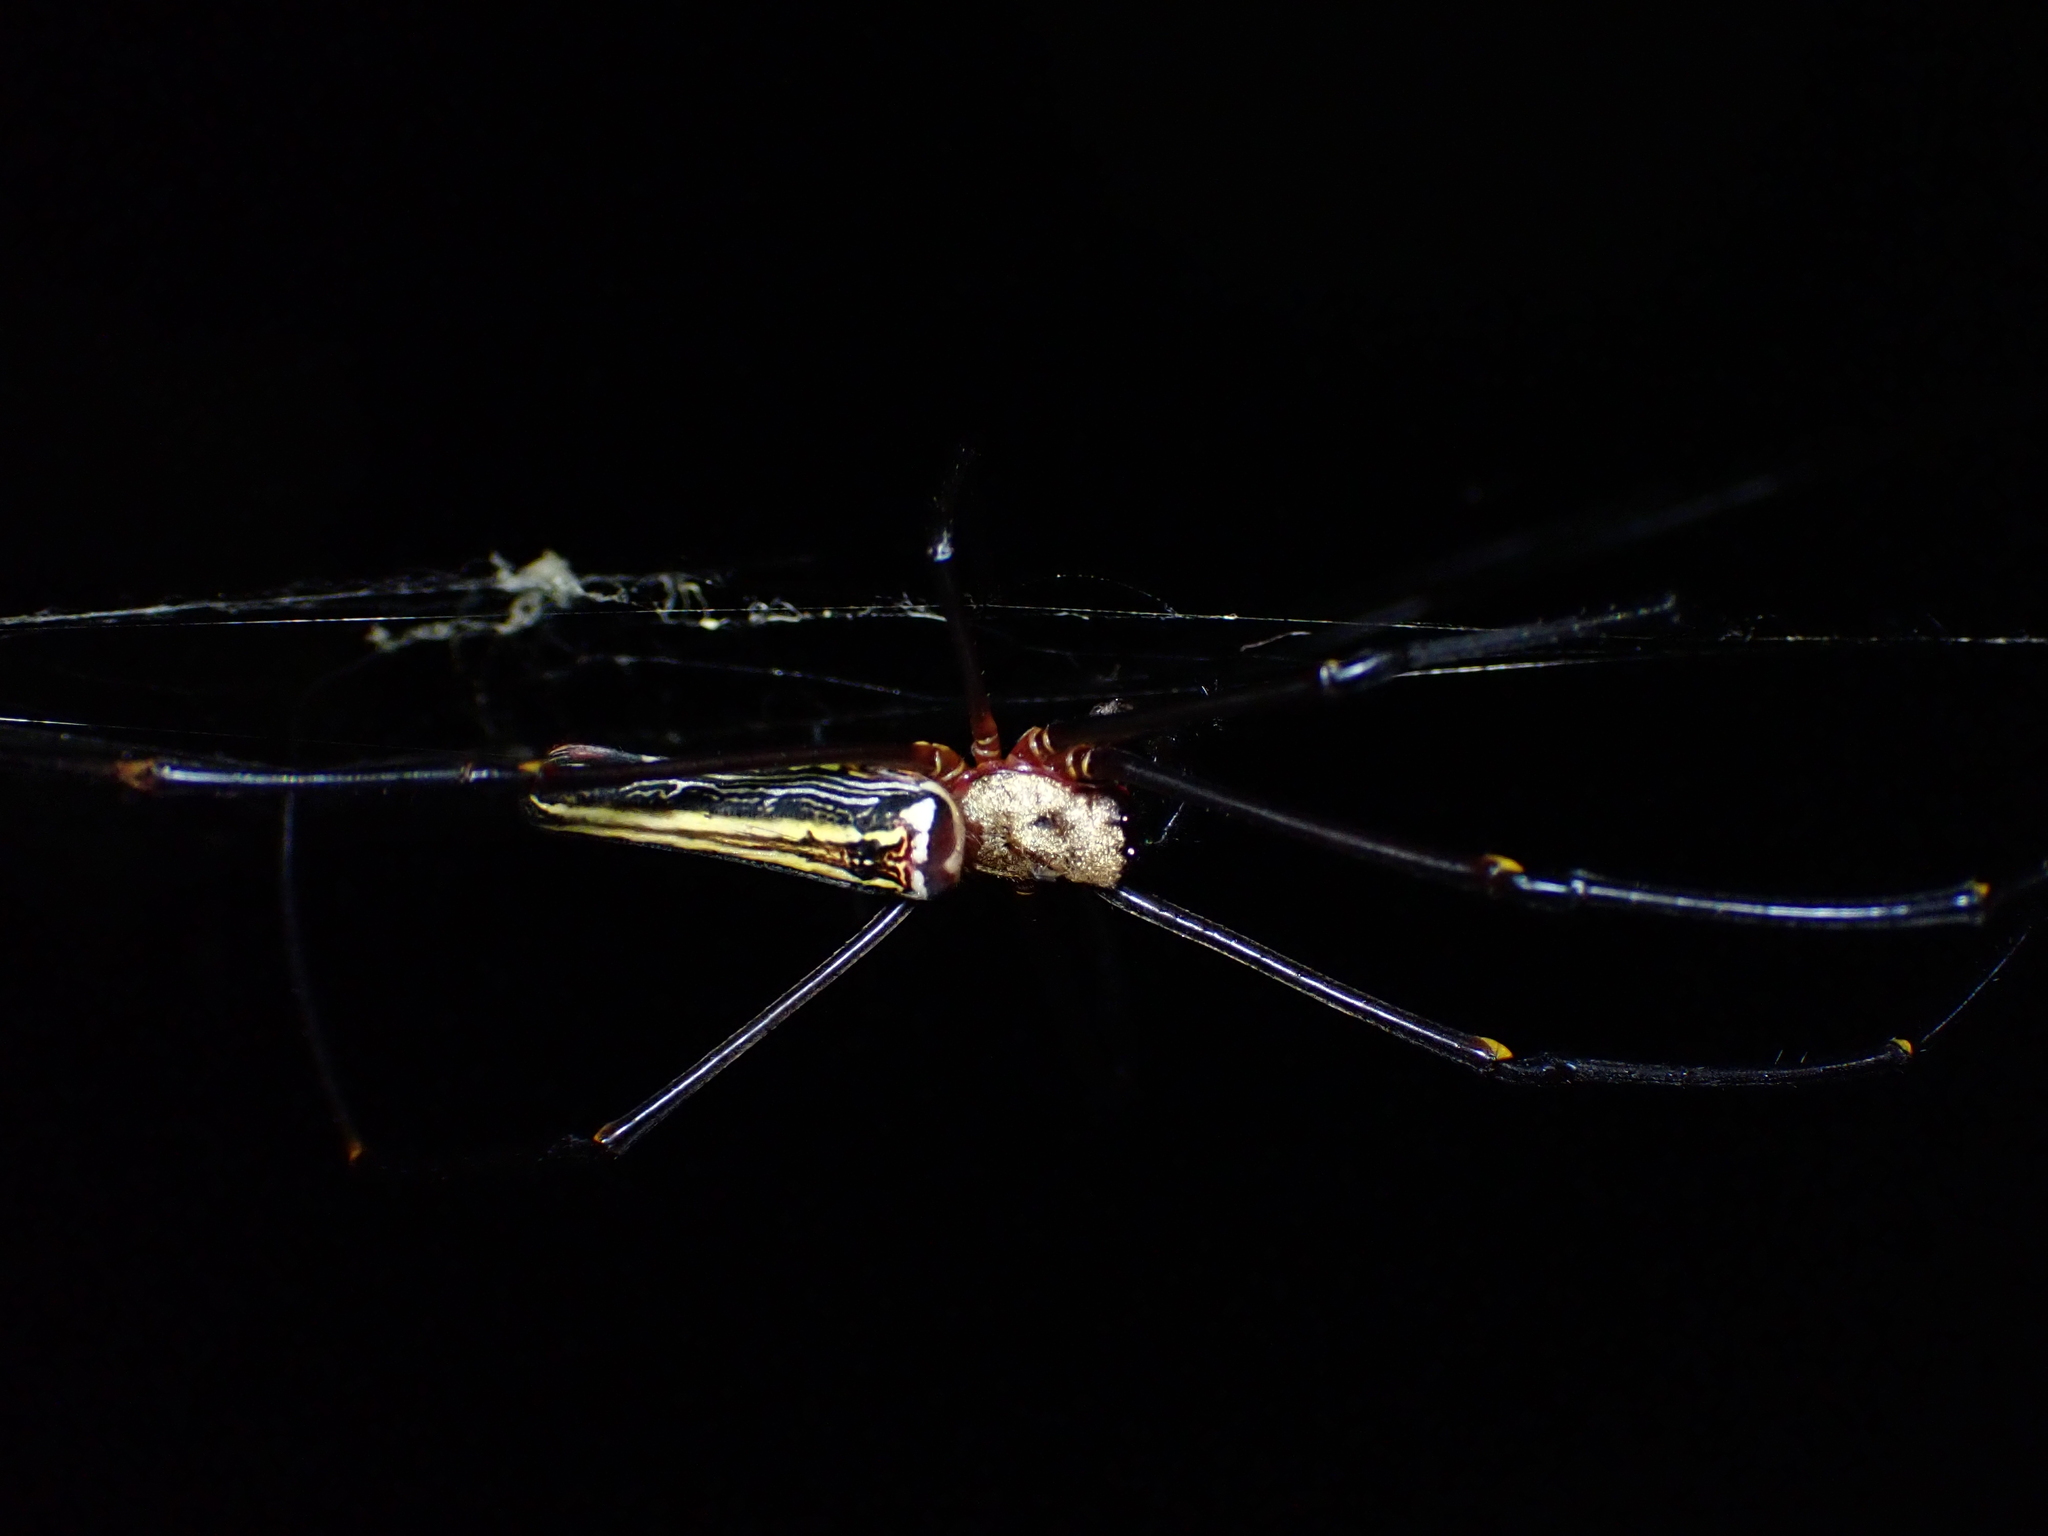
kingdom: Animalia
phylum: Arthropoda
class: Arachnida
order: Araneae
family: Araneidae
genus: Nephila
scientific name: Nephila pilipes
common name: Giant golden orb weaver
